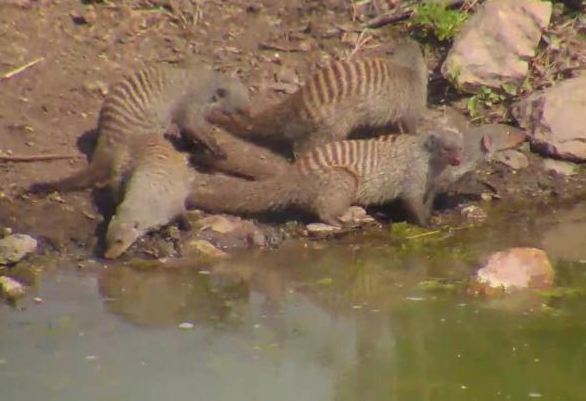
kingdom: Animalia
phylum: Chordata
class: Mammalia
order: Carnivora
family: Herpestidae
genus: Mungos
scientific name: Mungos mungo
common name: Banded mongoose
